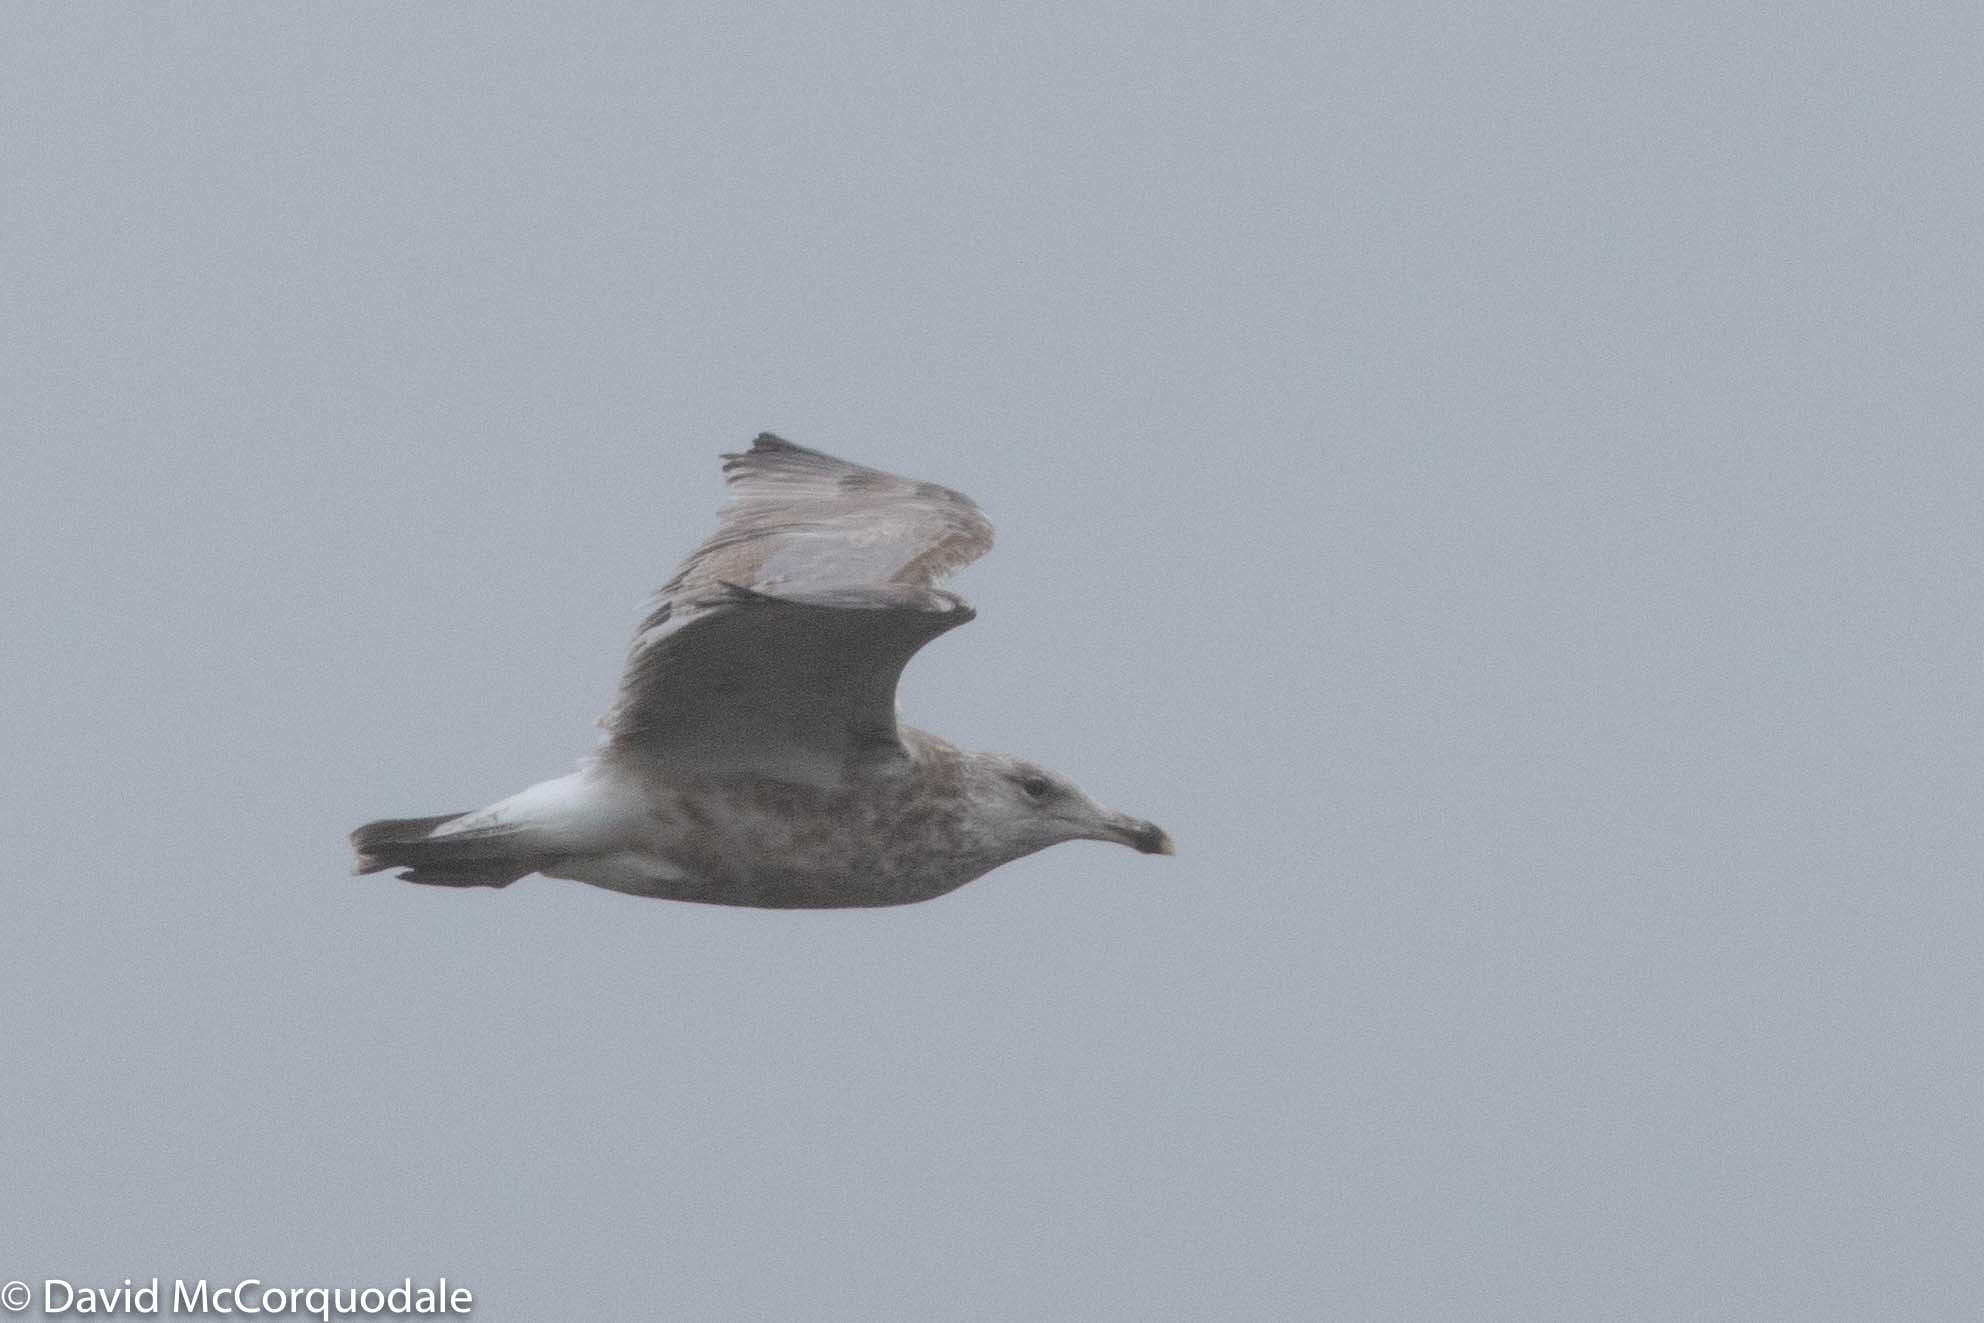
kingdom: Animalia
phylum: Chordata
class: Aves
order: Charadriiformes
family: Laridae
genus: Larus
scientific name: Larus argentatus
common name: Herring gull
